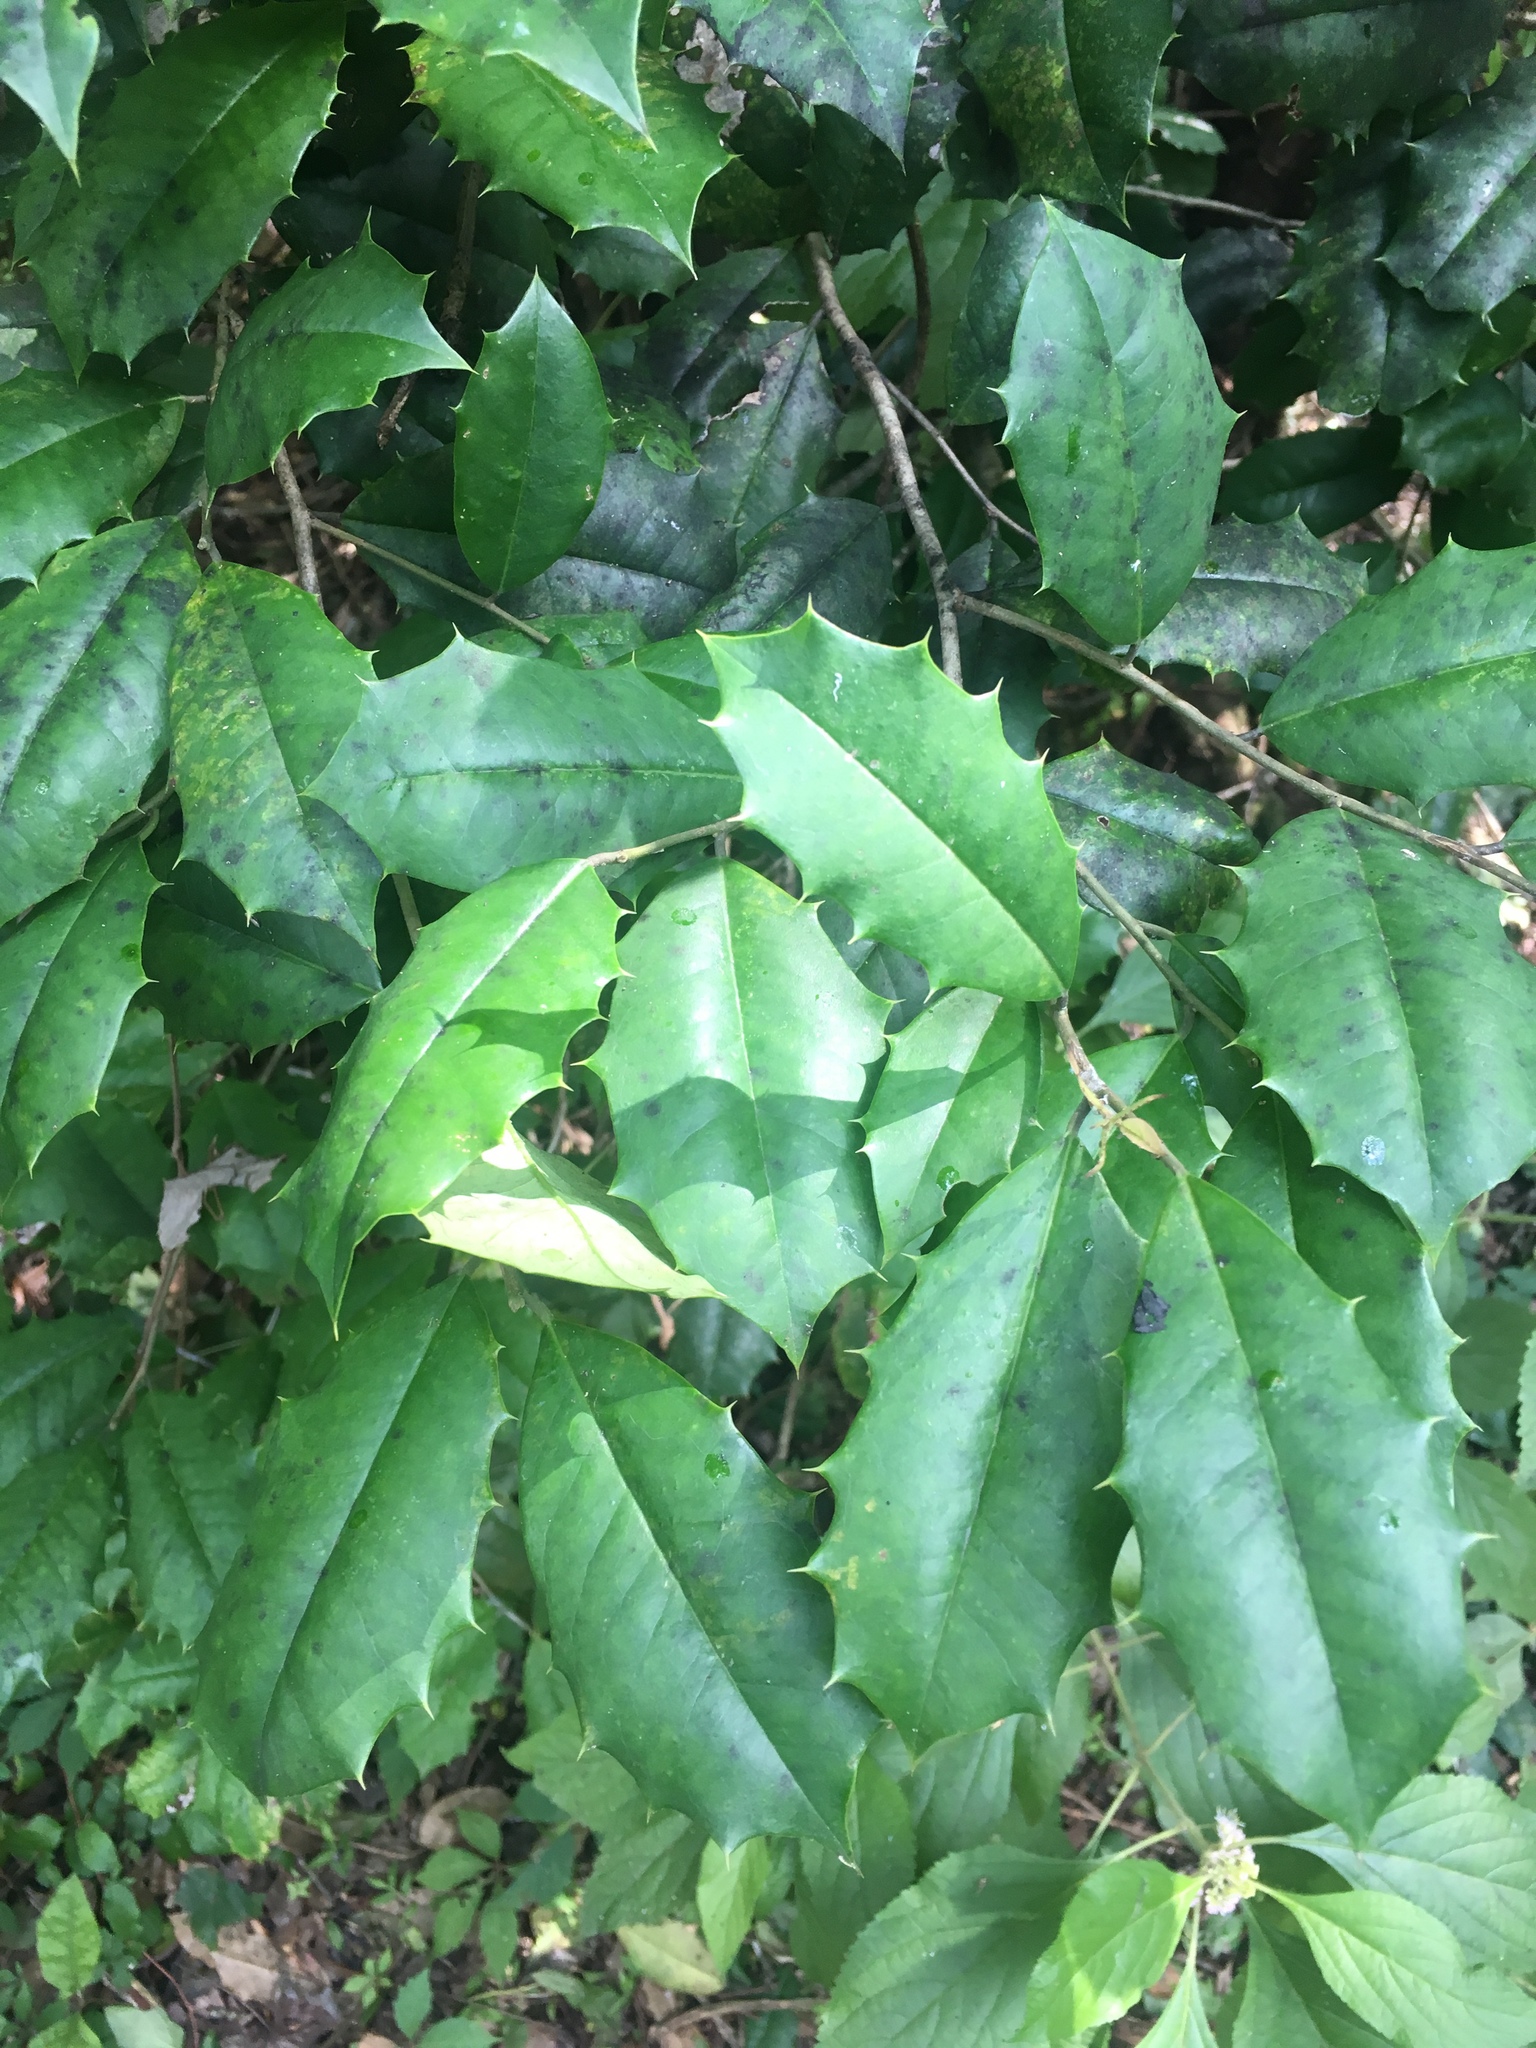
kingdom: Plantae
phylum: Tracheophyta
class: Magnoliopsida
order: Aquifoliales
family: Aquifoliaceae
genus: Ilex
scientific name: Ilex opaca
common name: American holly
